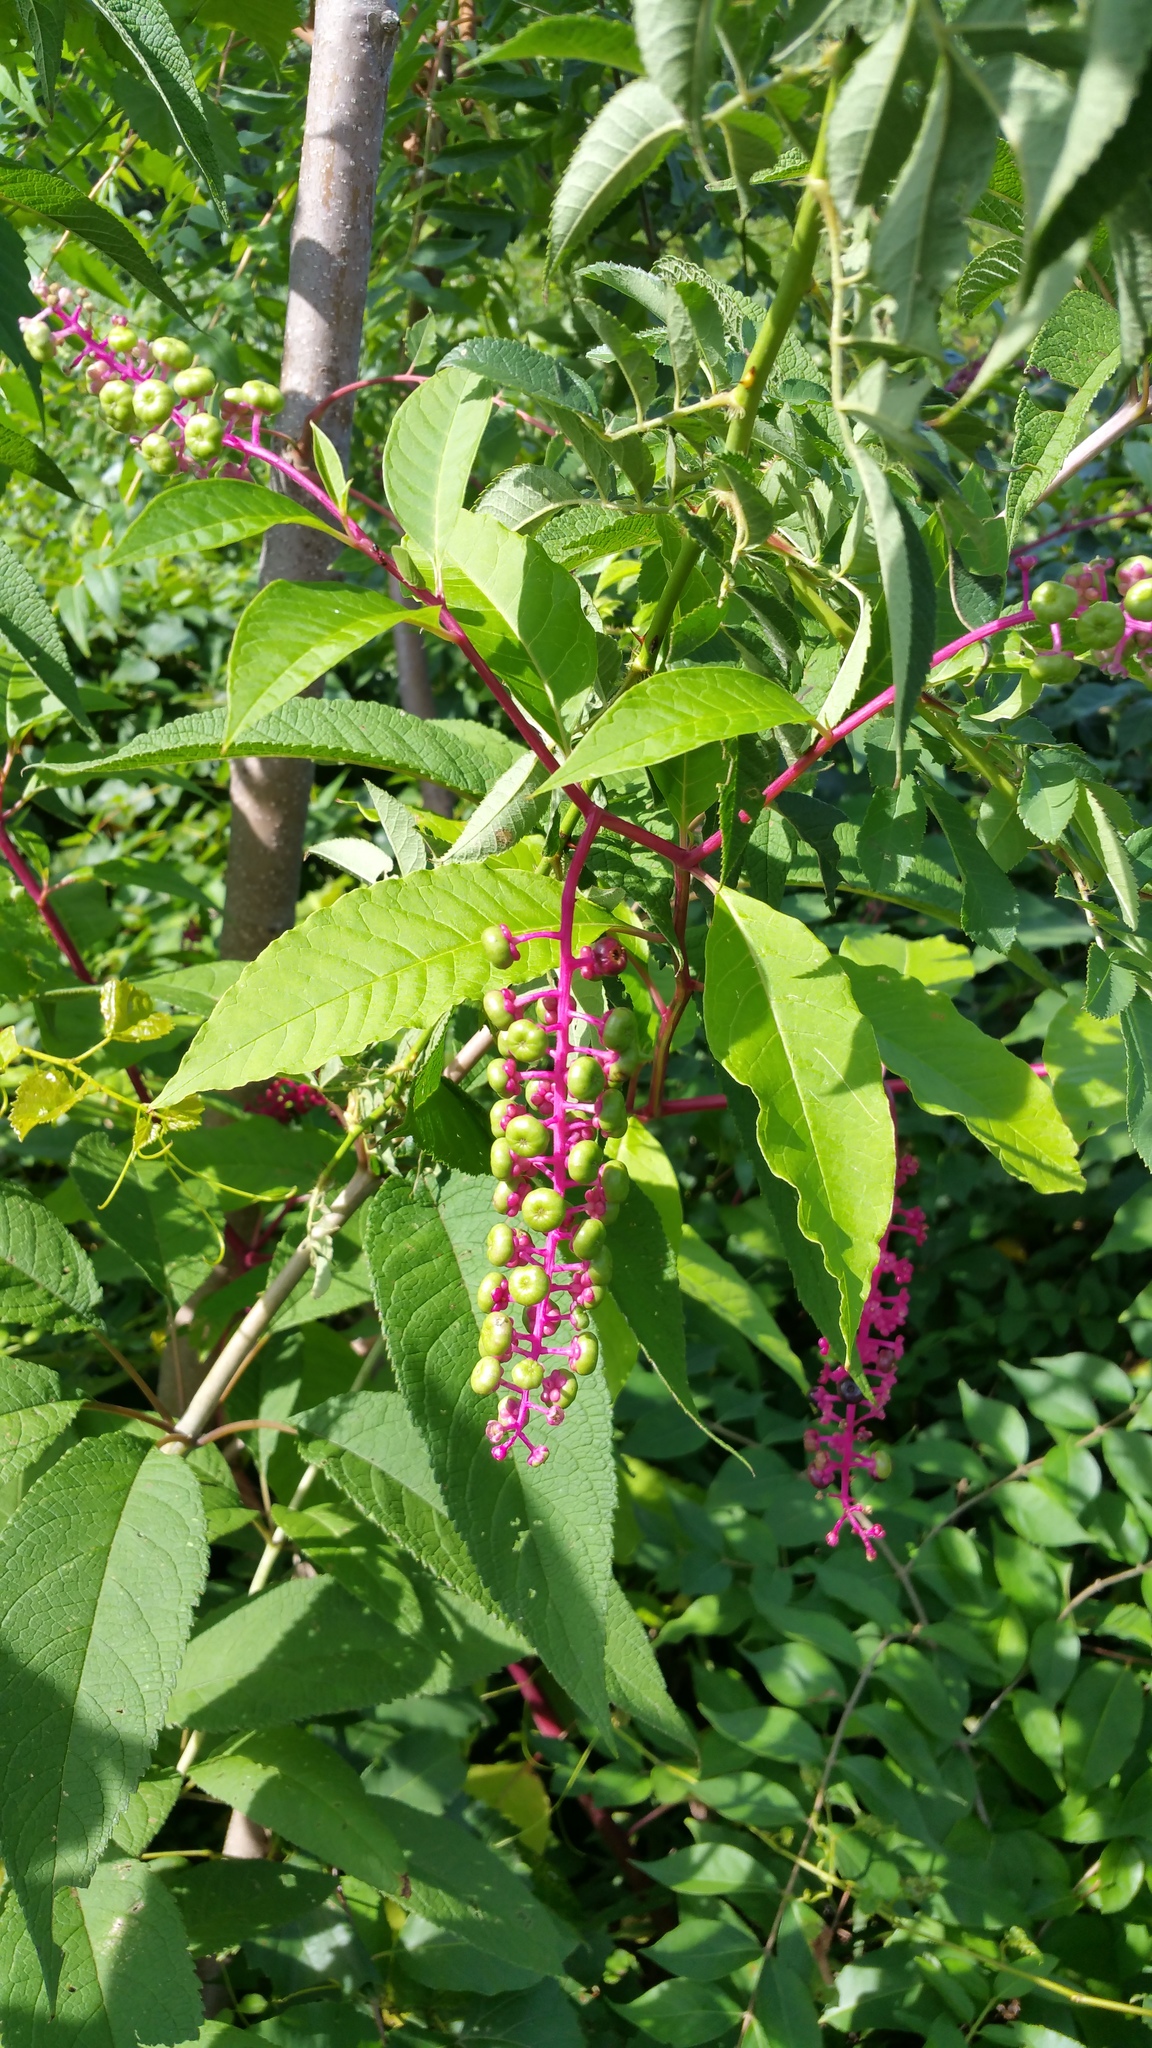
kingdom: Plantae
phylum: Tracheophyta
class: Magnoliopsida
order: Caryophyllales
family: Phytolaccaceae
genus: Phytolacca
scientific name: Phytolacca americana
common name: American pokeweed
